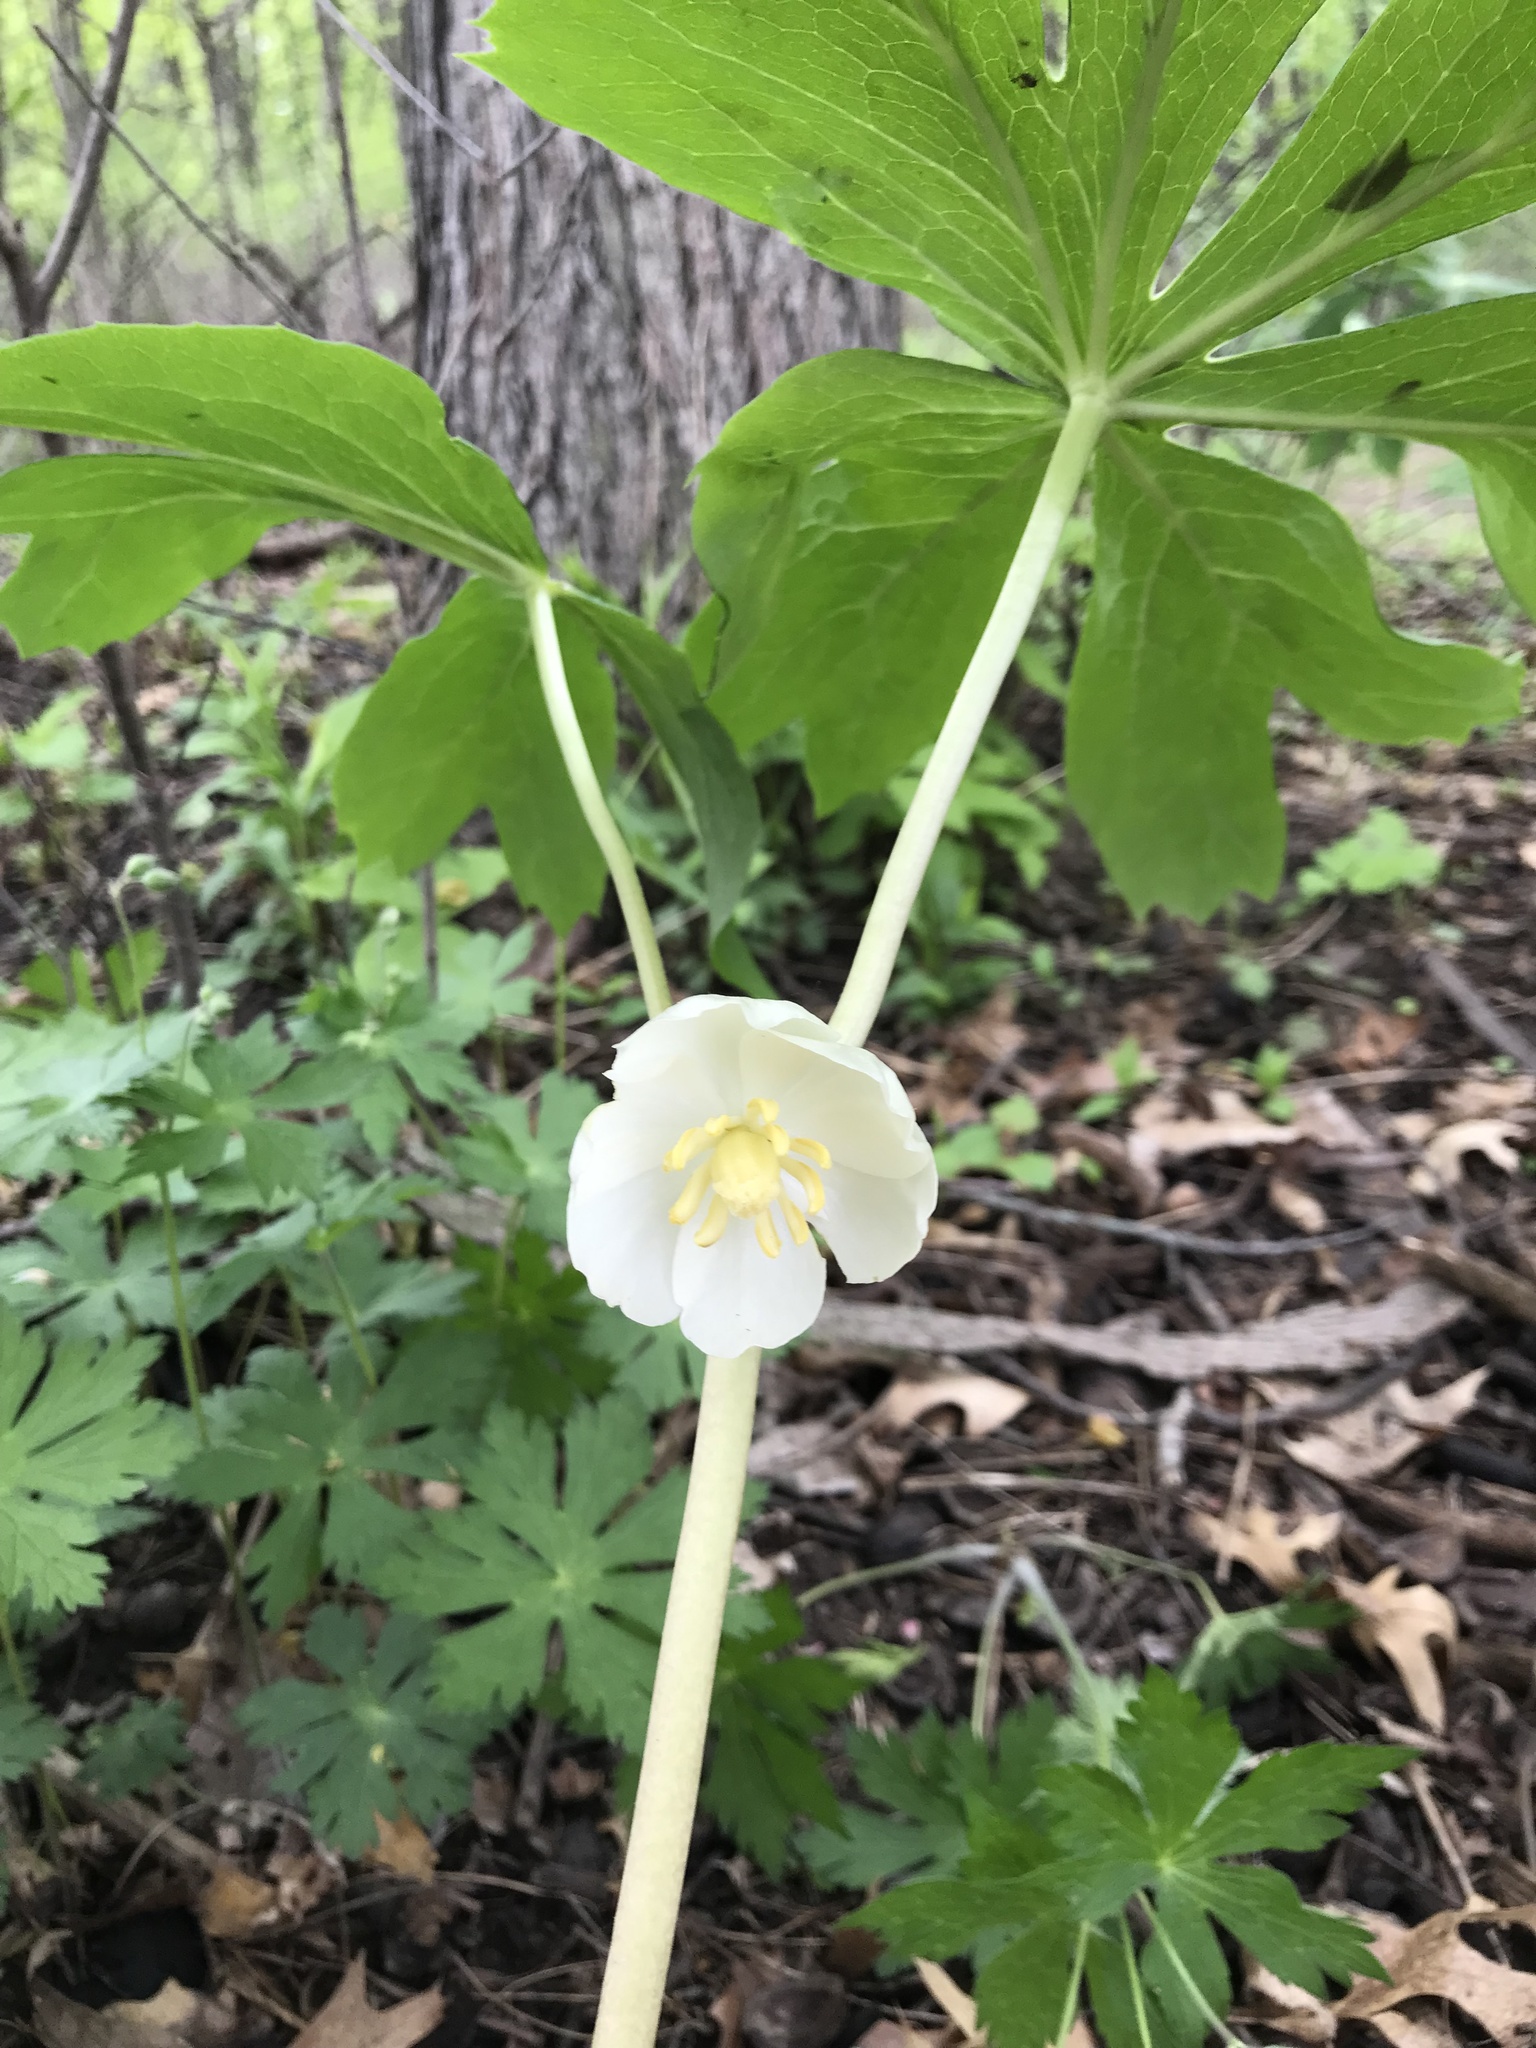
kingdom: Plantae
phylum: Tracheophyta
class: Magnoliopsida
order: Ranunculales
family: Berberidaceae
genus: Podophyllum
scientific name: Podophyllum peltatum
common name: Wild mandrake
